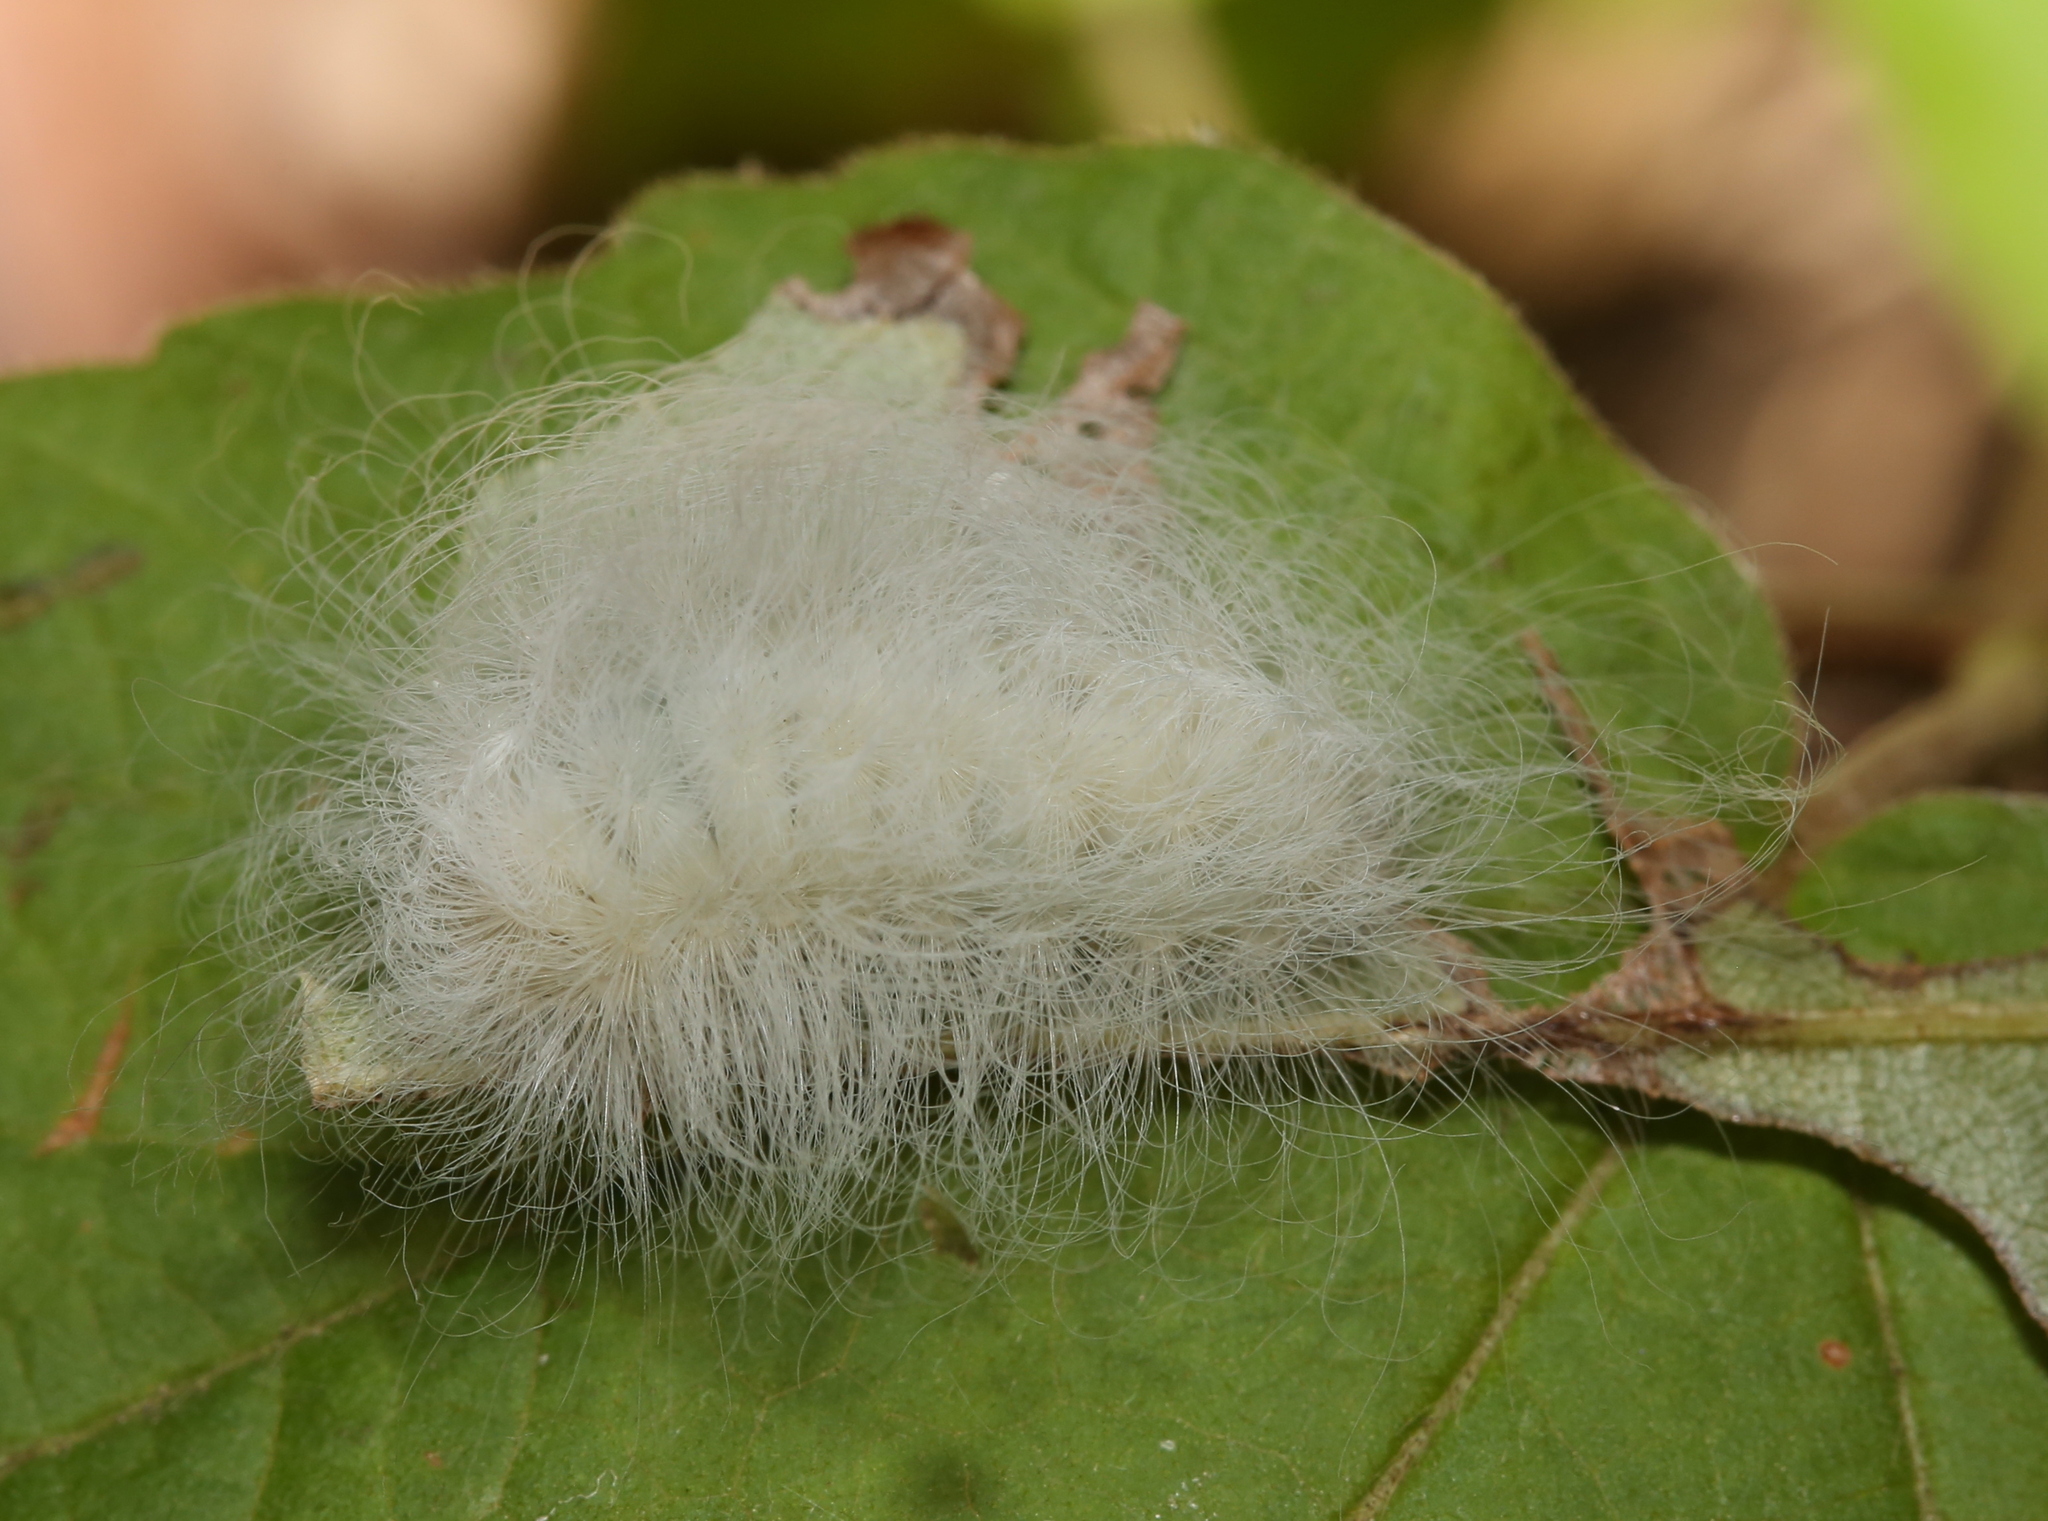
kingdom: Animalia
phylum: Arthropoda
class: Insecta
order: Lepidoptera
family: Megalopygidae
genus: Megalopyge
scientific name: Megalopyge crispata
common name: Black-waved flannel moth
